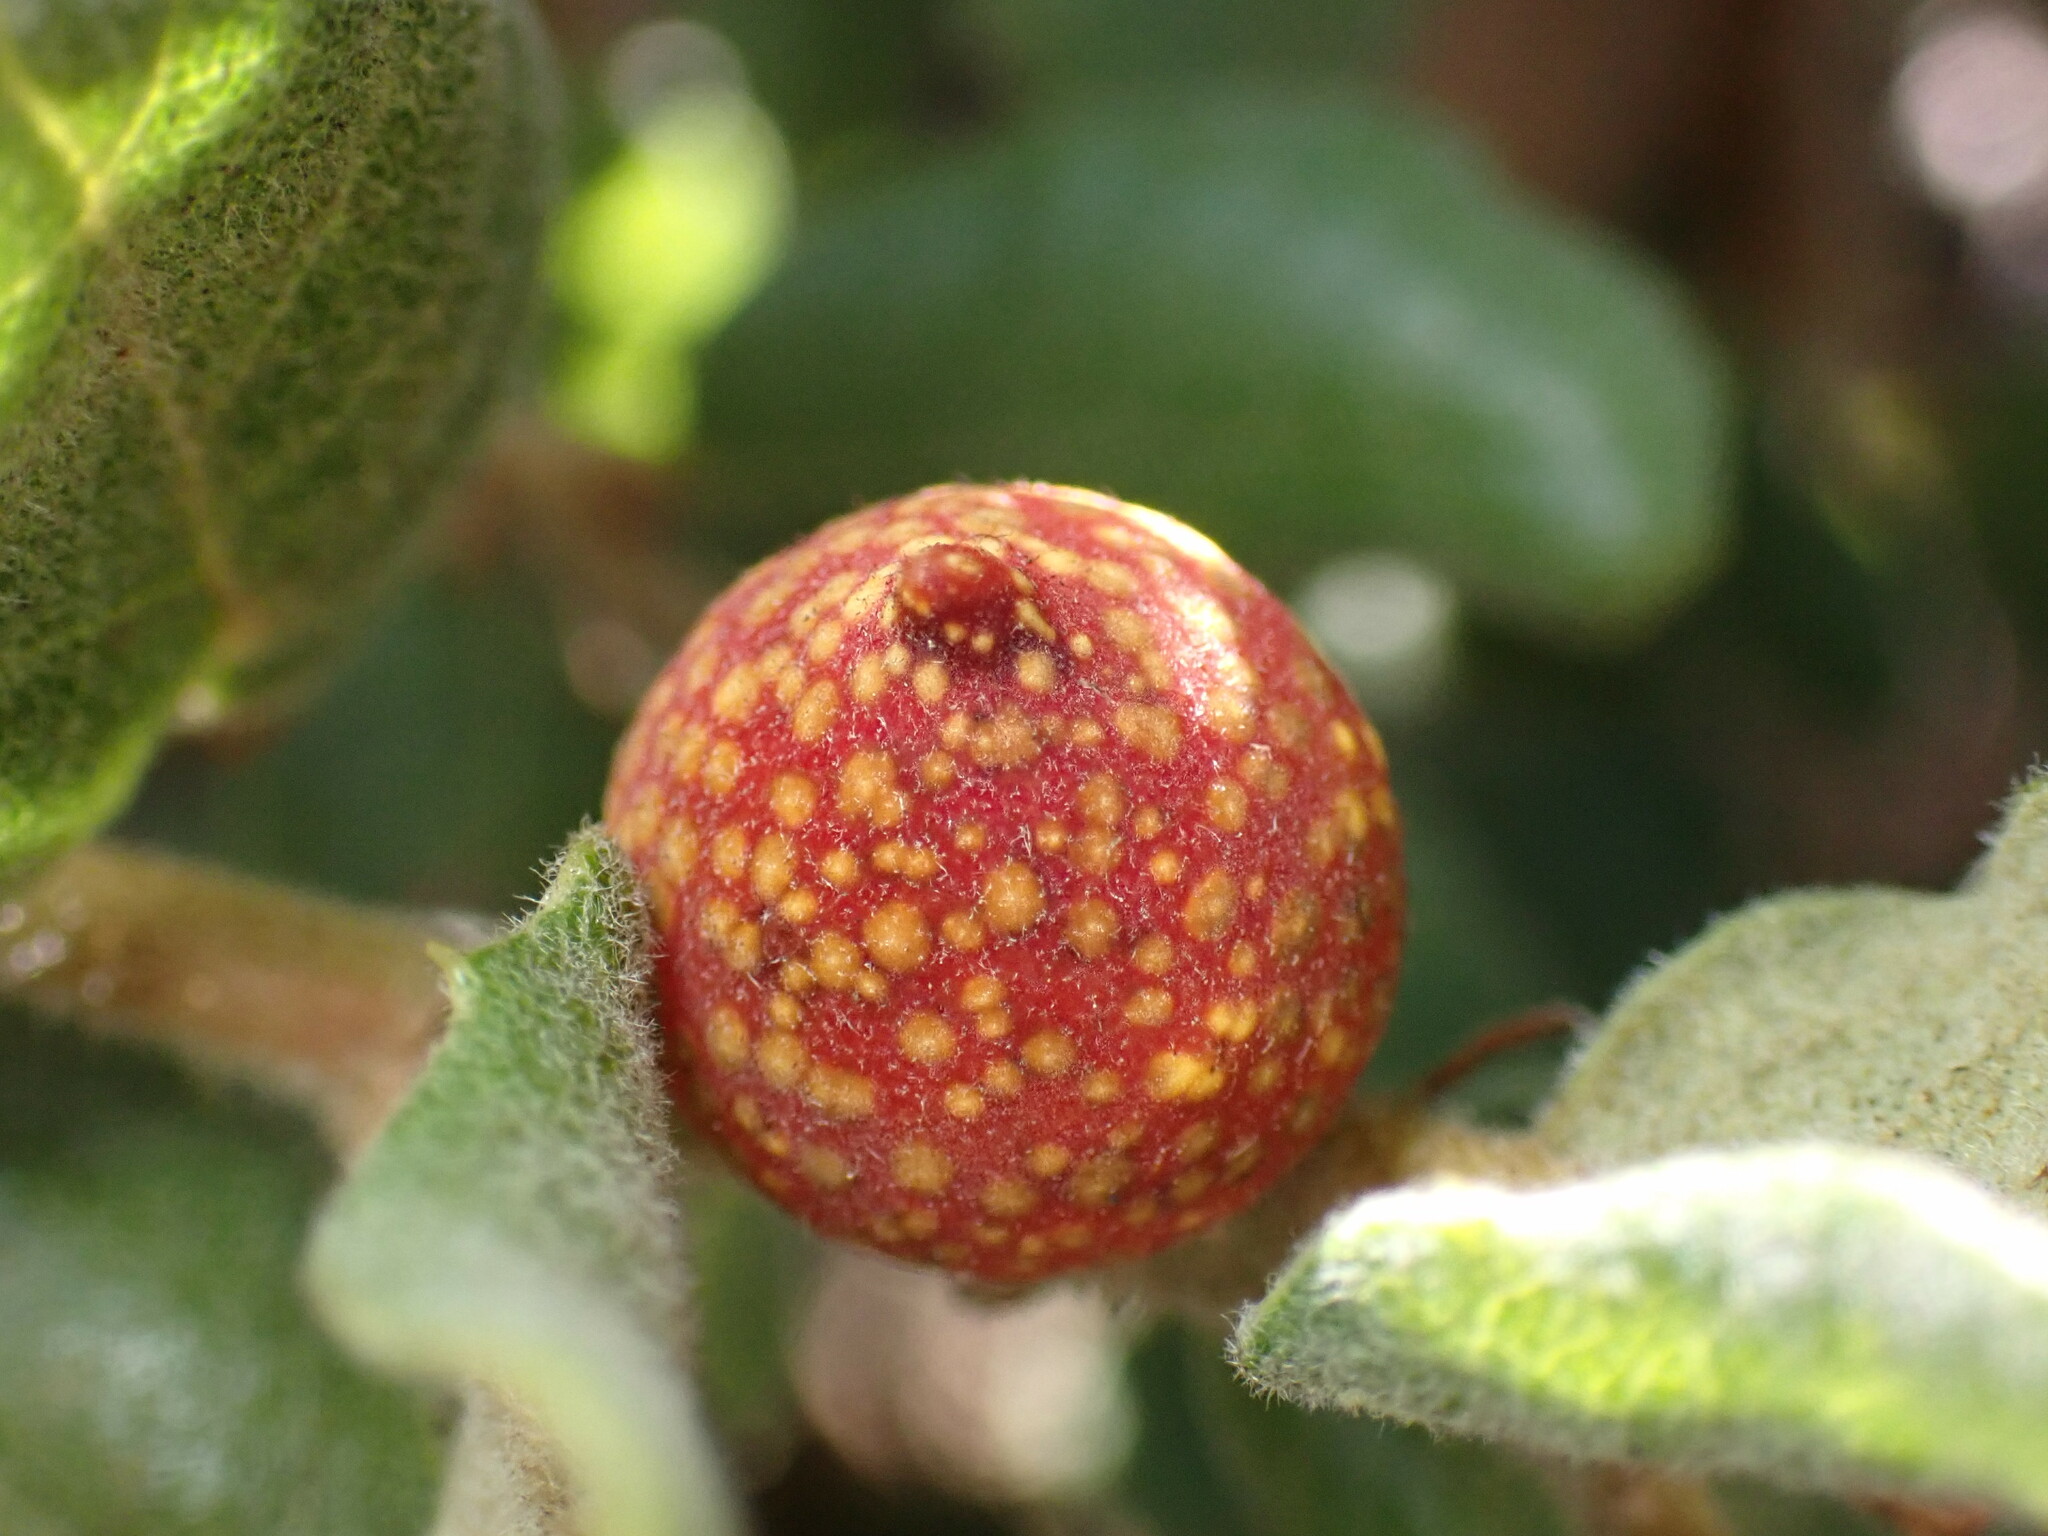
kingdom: Animalia
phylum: Arthropoda
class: Insecta
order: Hymenoptera
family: Cynipidae
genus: Burnettweldia
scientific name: Burnettweldia
